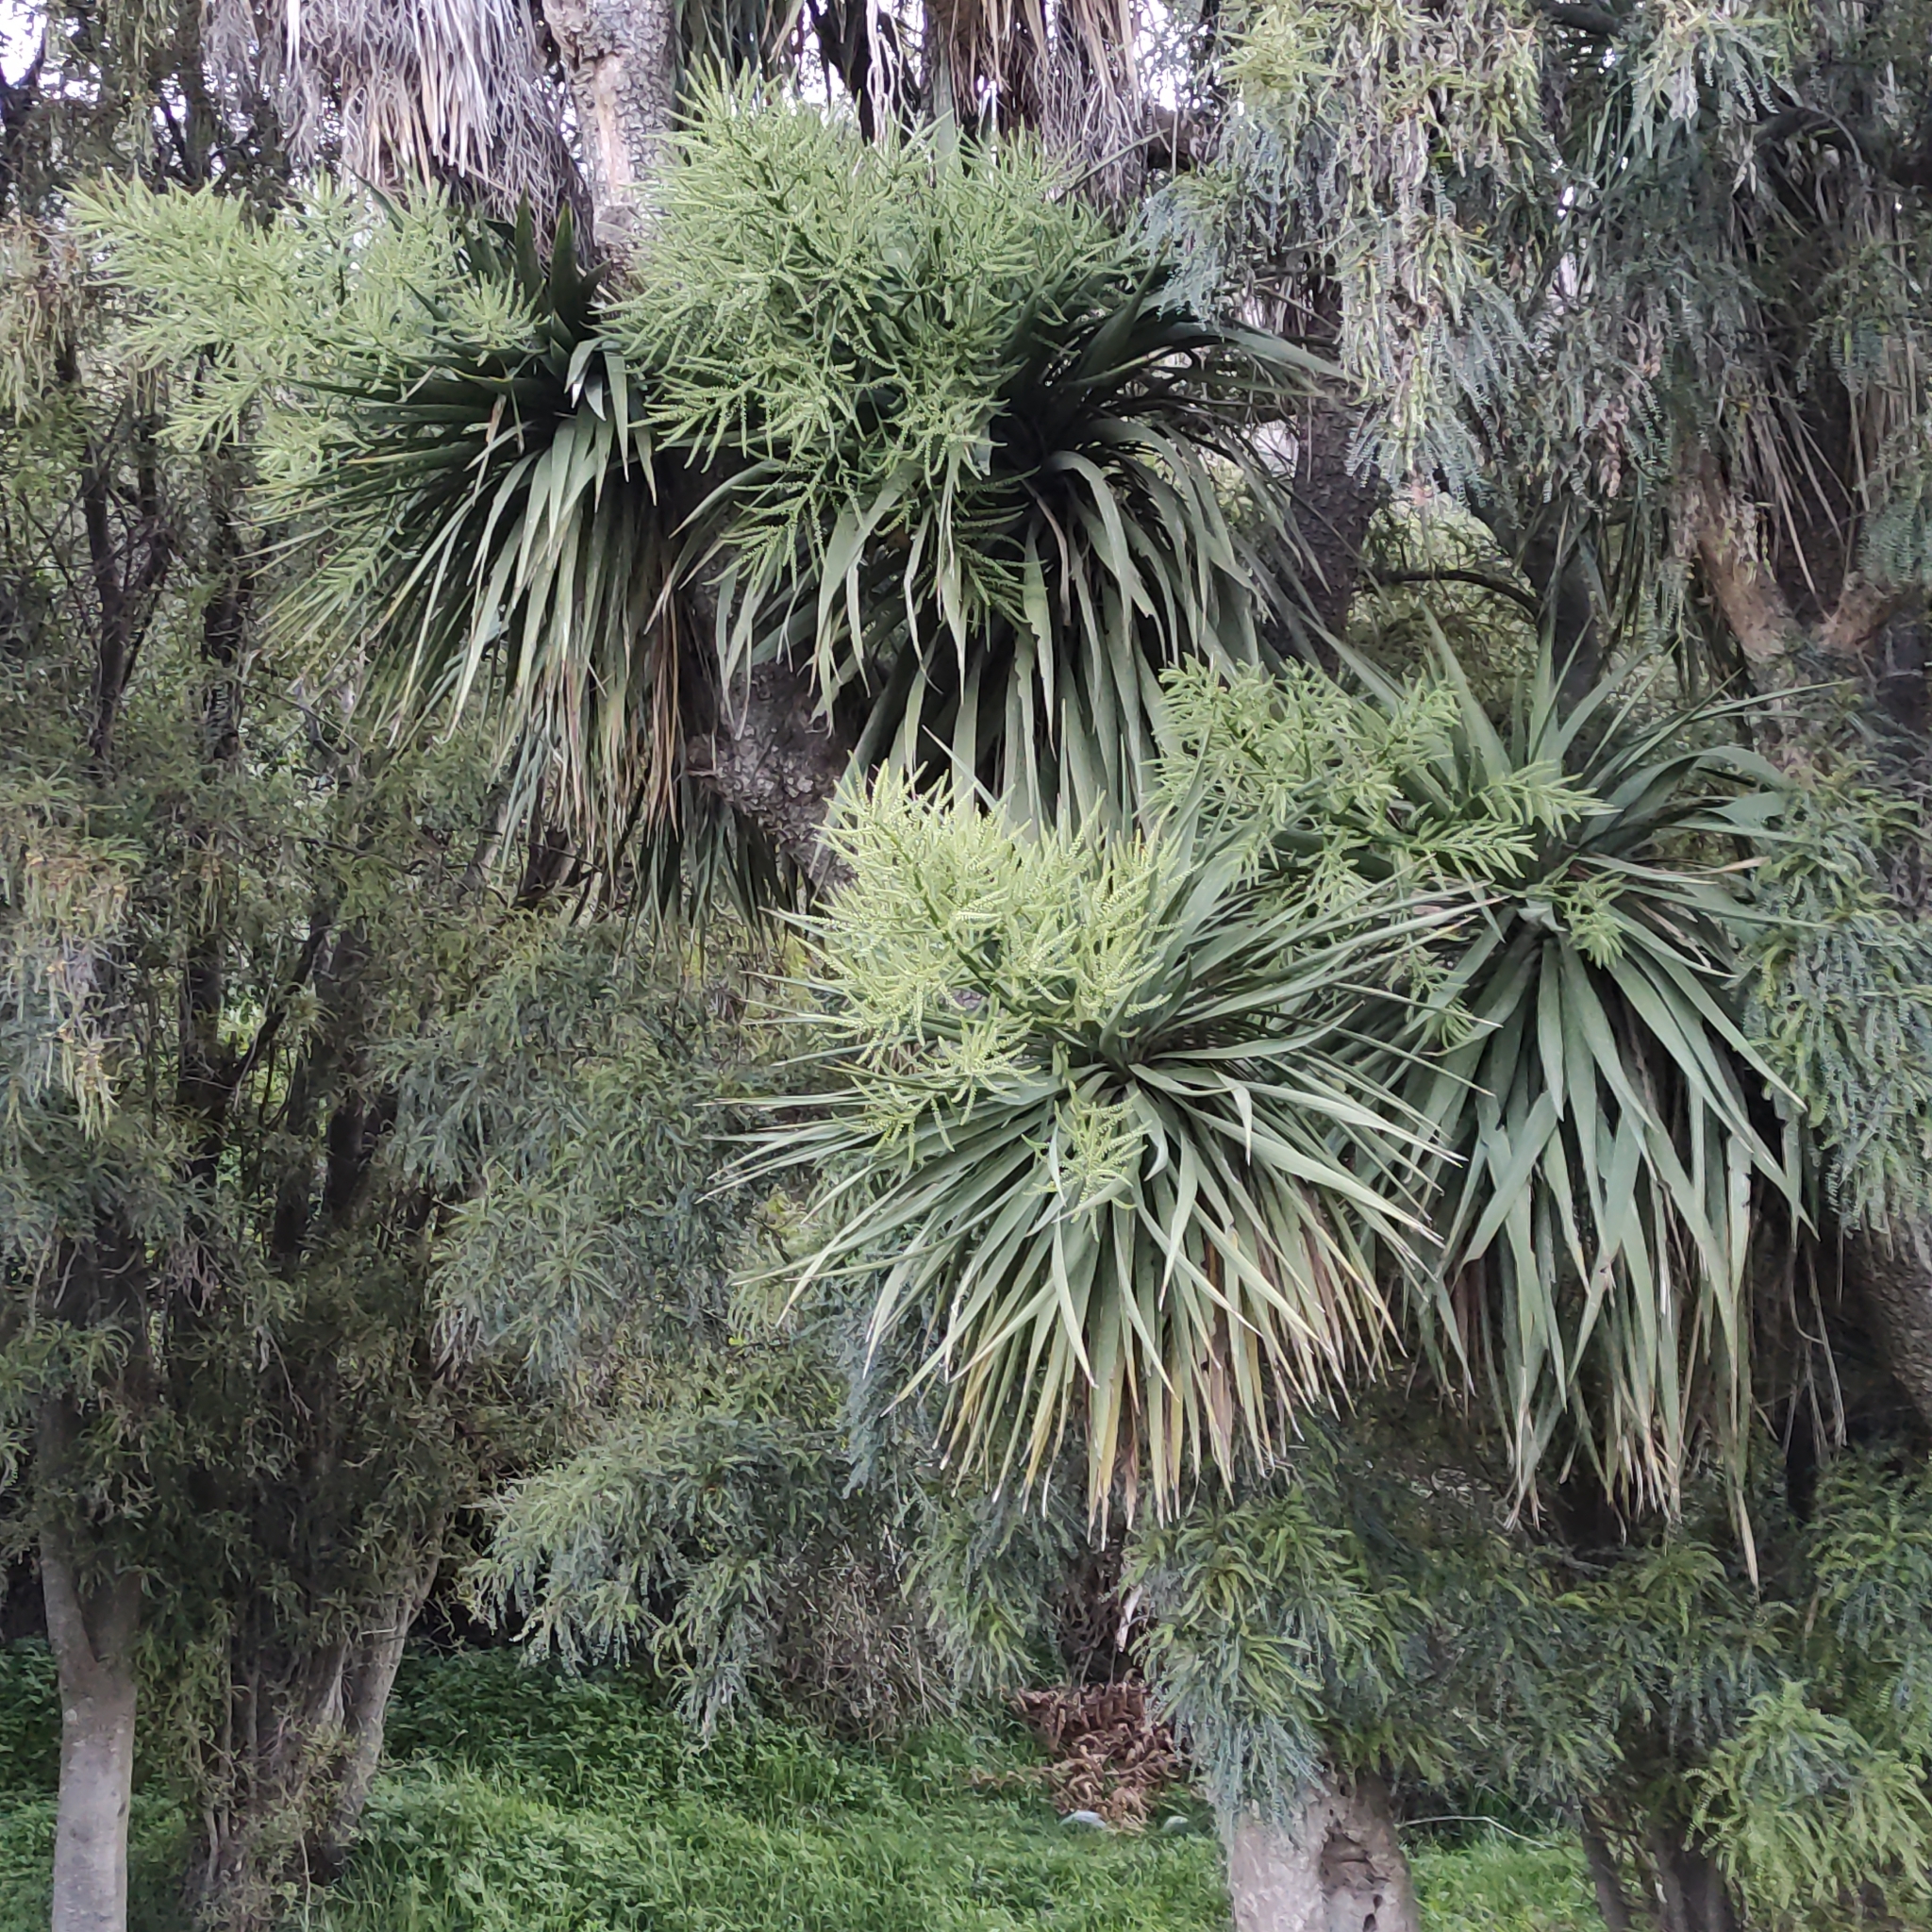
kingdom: Plantae
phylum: Tracheophyta
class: Liliopsida
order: Asparagales
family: Asparagaceae
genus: Cordyline
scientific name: Cordyline australis
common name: Cabbage-palm
